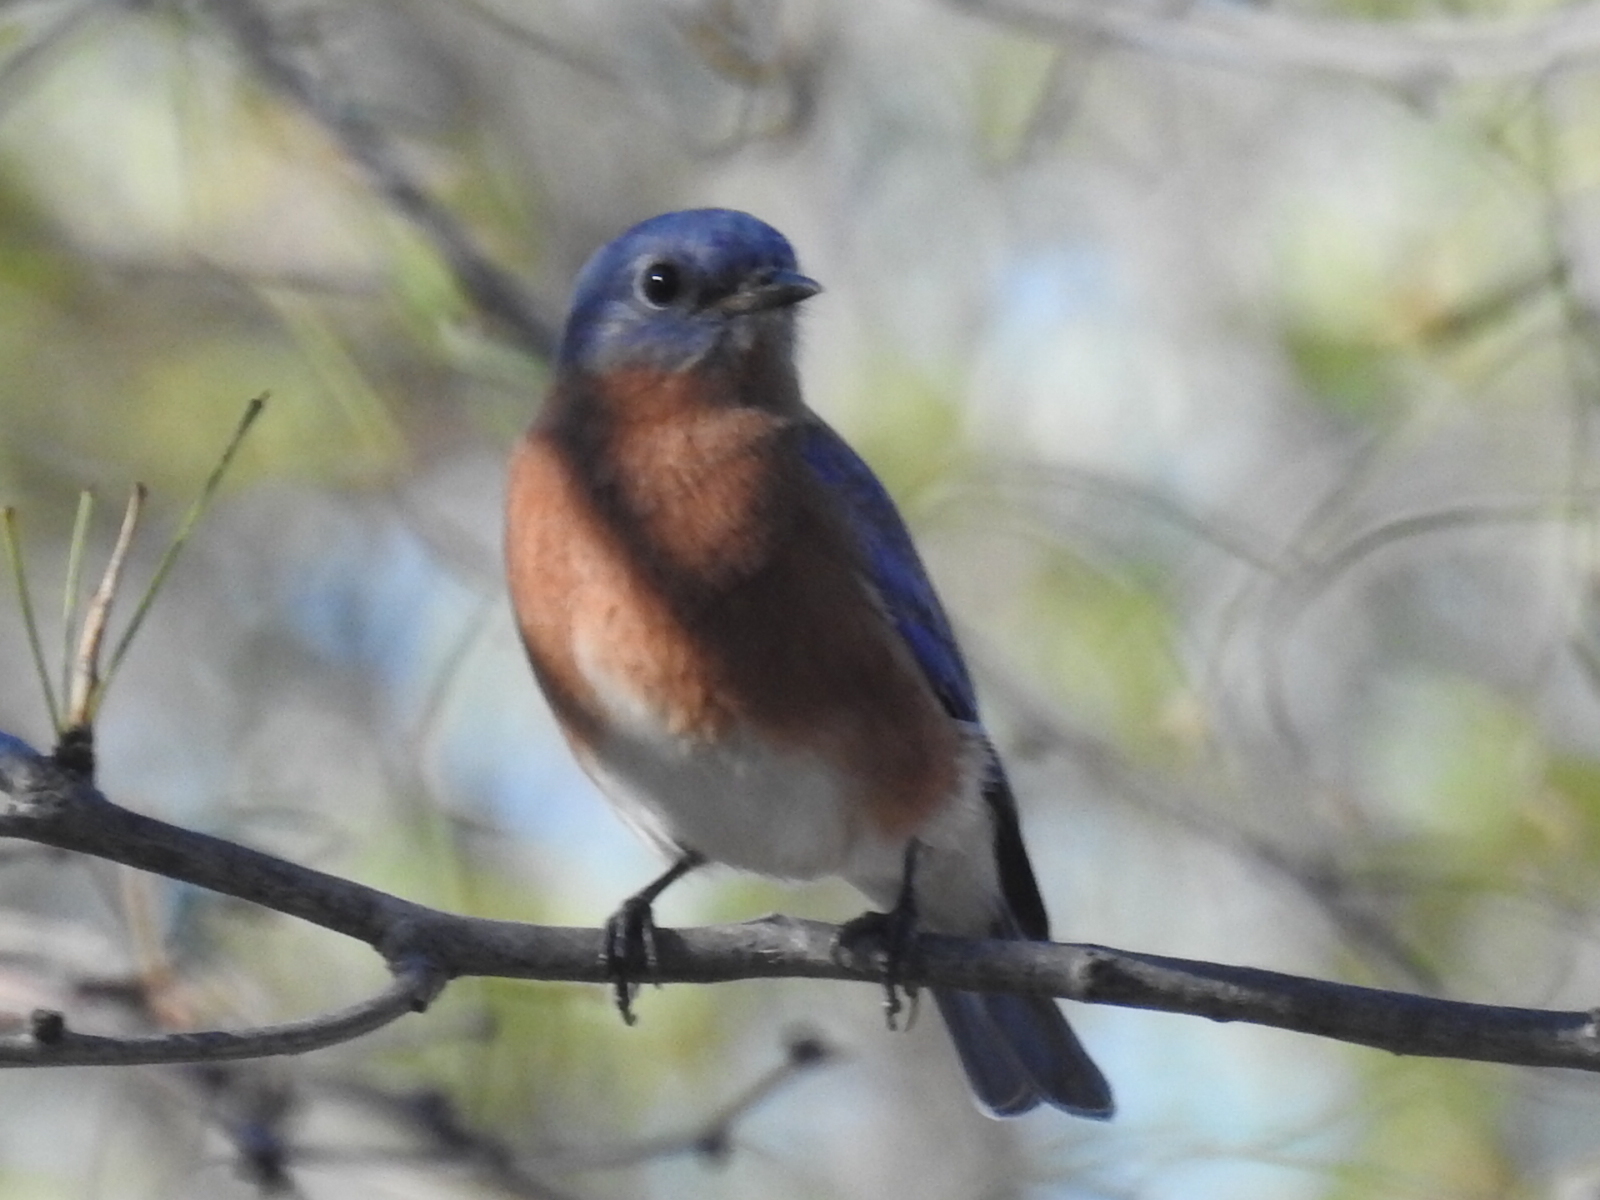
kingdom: Animalia
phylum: Chordata
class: Aves
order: Passeriformes
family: Turdidae
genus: Sialia
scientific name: Sialia sialis
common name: Eastern bluebird
